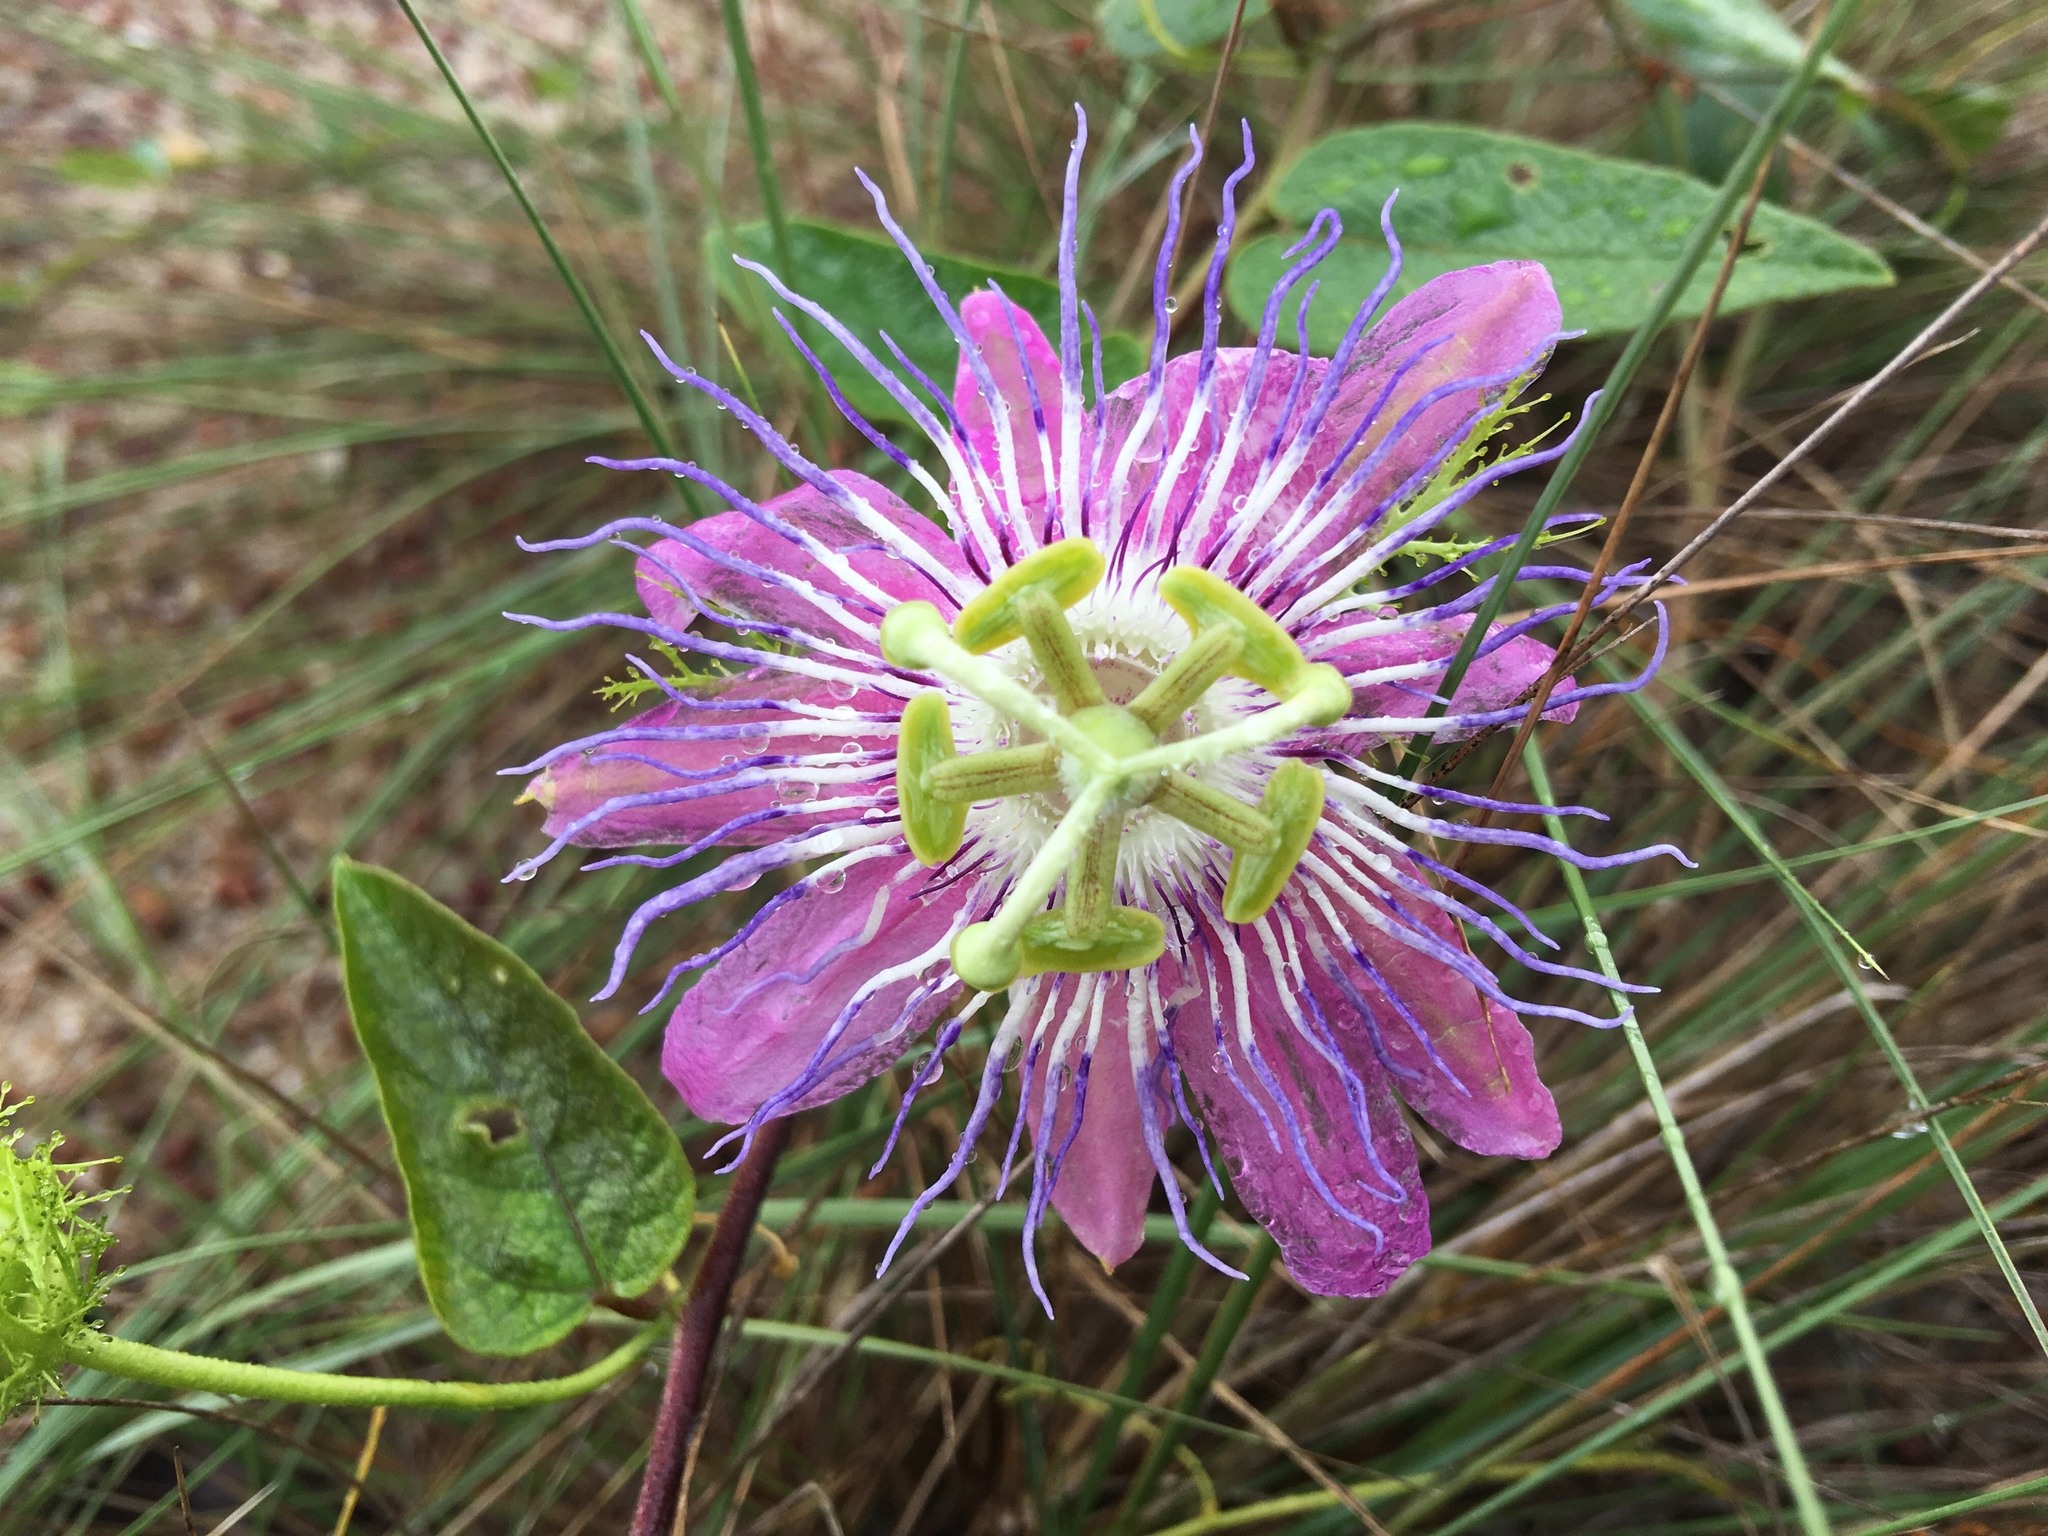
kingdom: Plantae
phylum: Tracheophyta
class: Magnoliopsida
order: Malpighiales
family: Passifloraceae
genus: Passiflora
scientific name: Passiflora urbaniana
